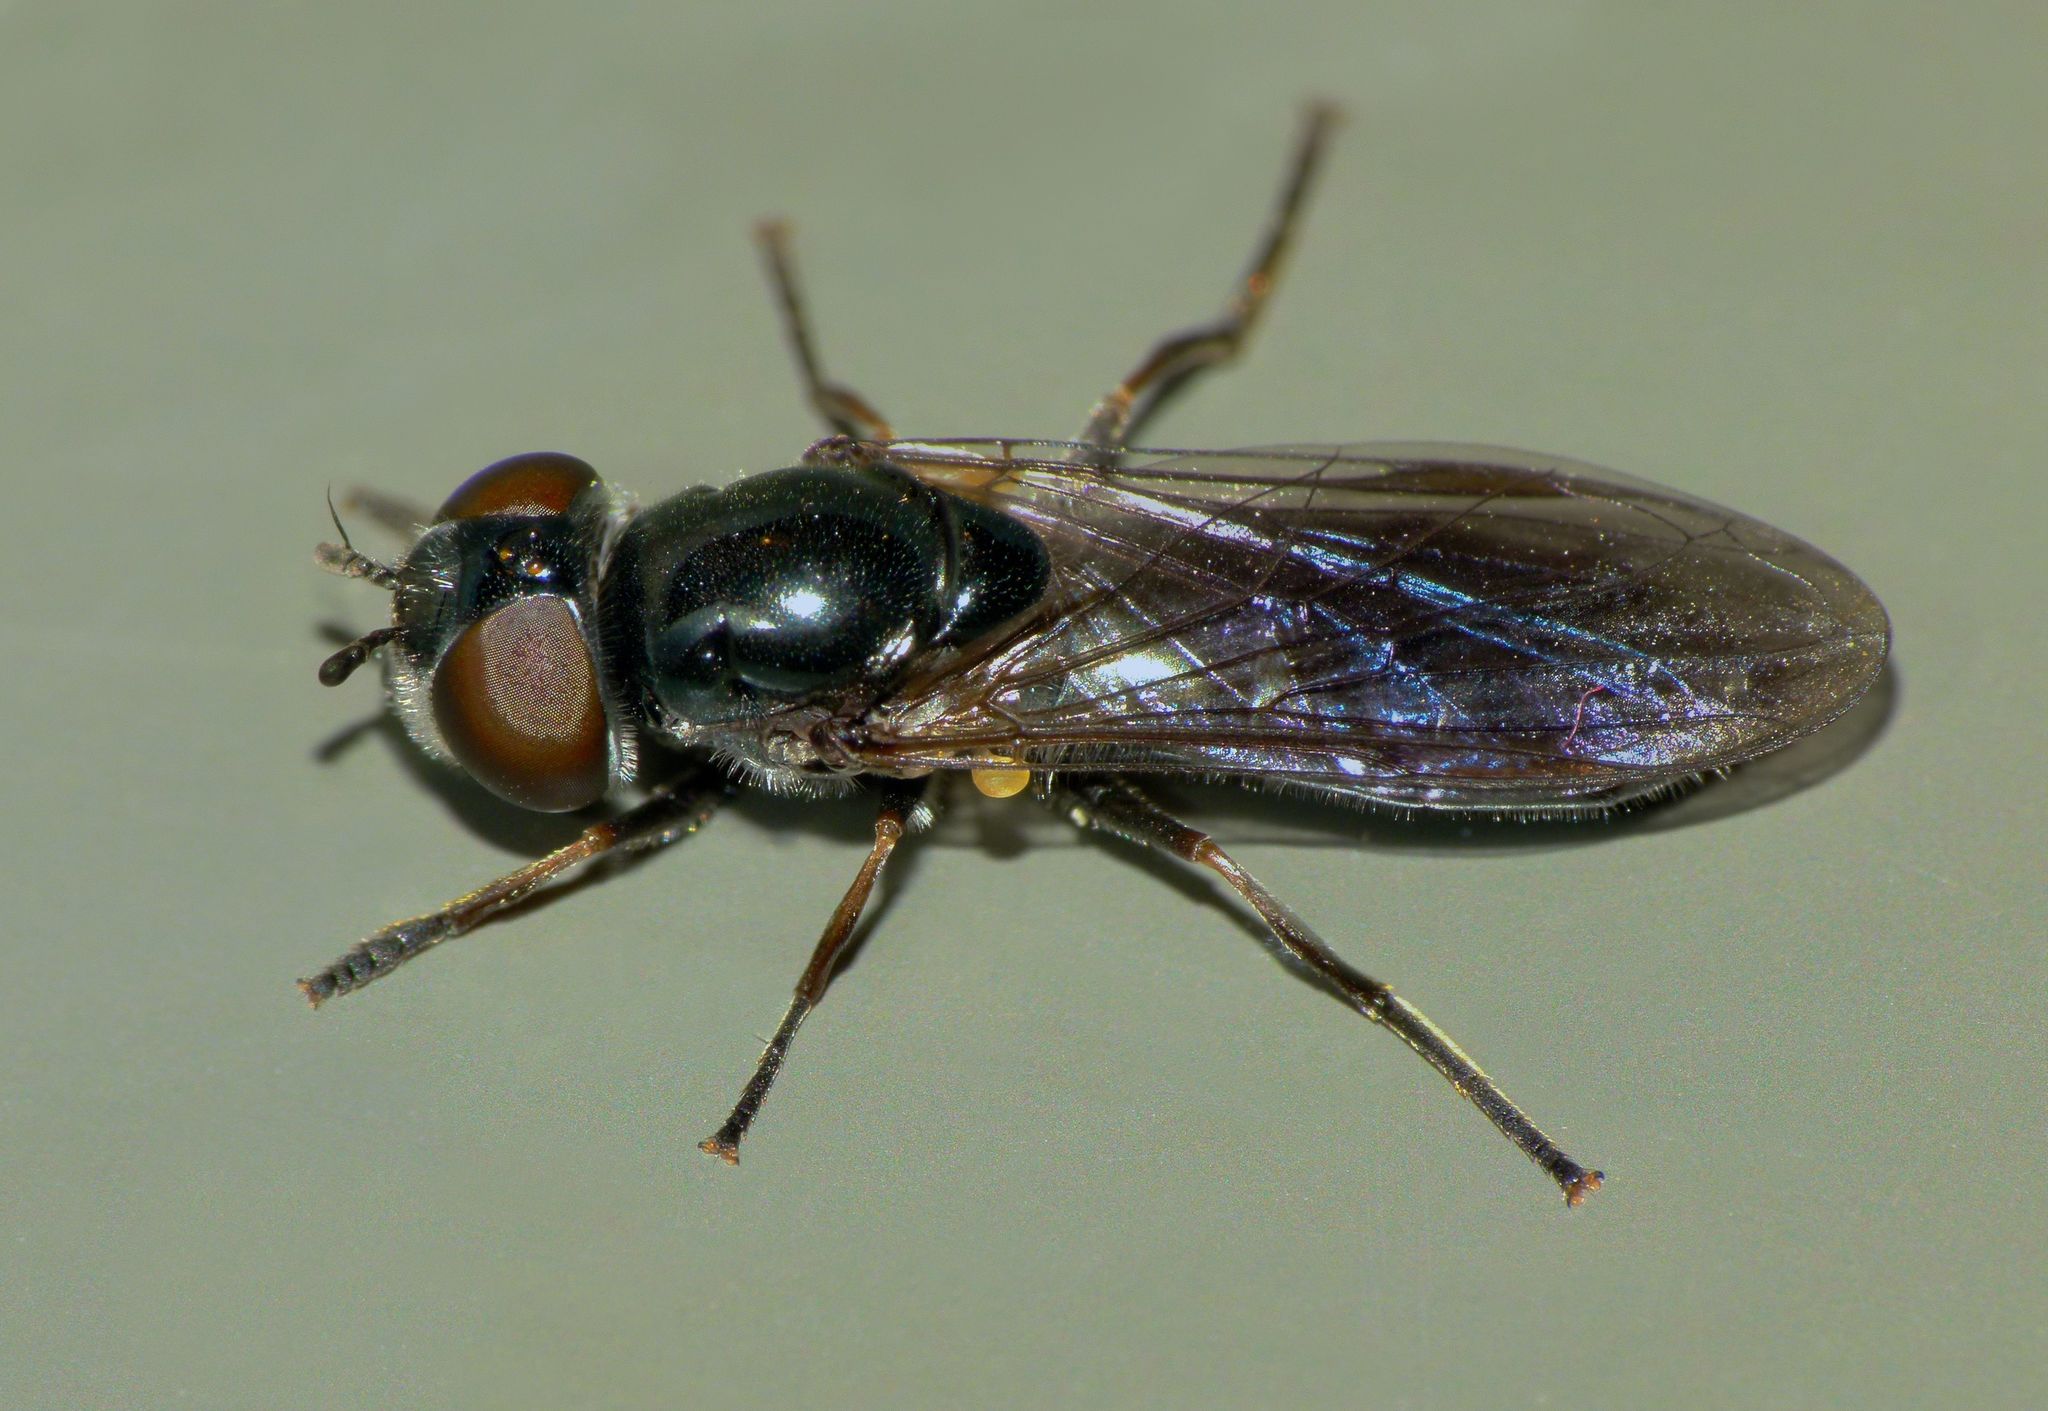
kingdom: Animalia
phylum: Arthropoda
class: Insecta
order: Diptera
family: Syrphidae
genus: Eocheilosia
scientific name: Eocheilosia lignudus
